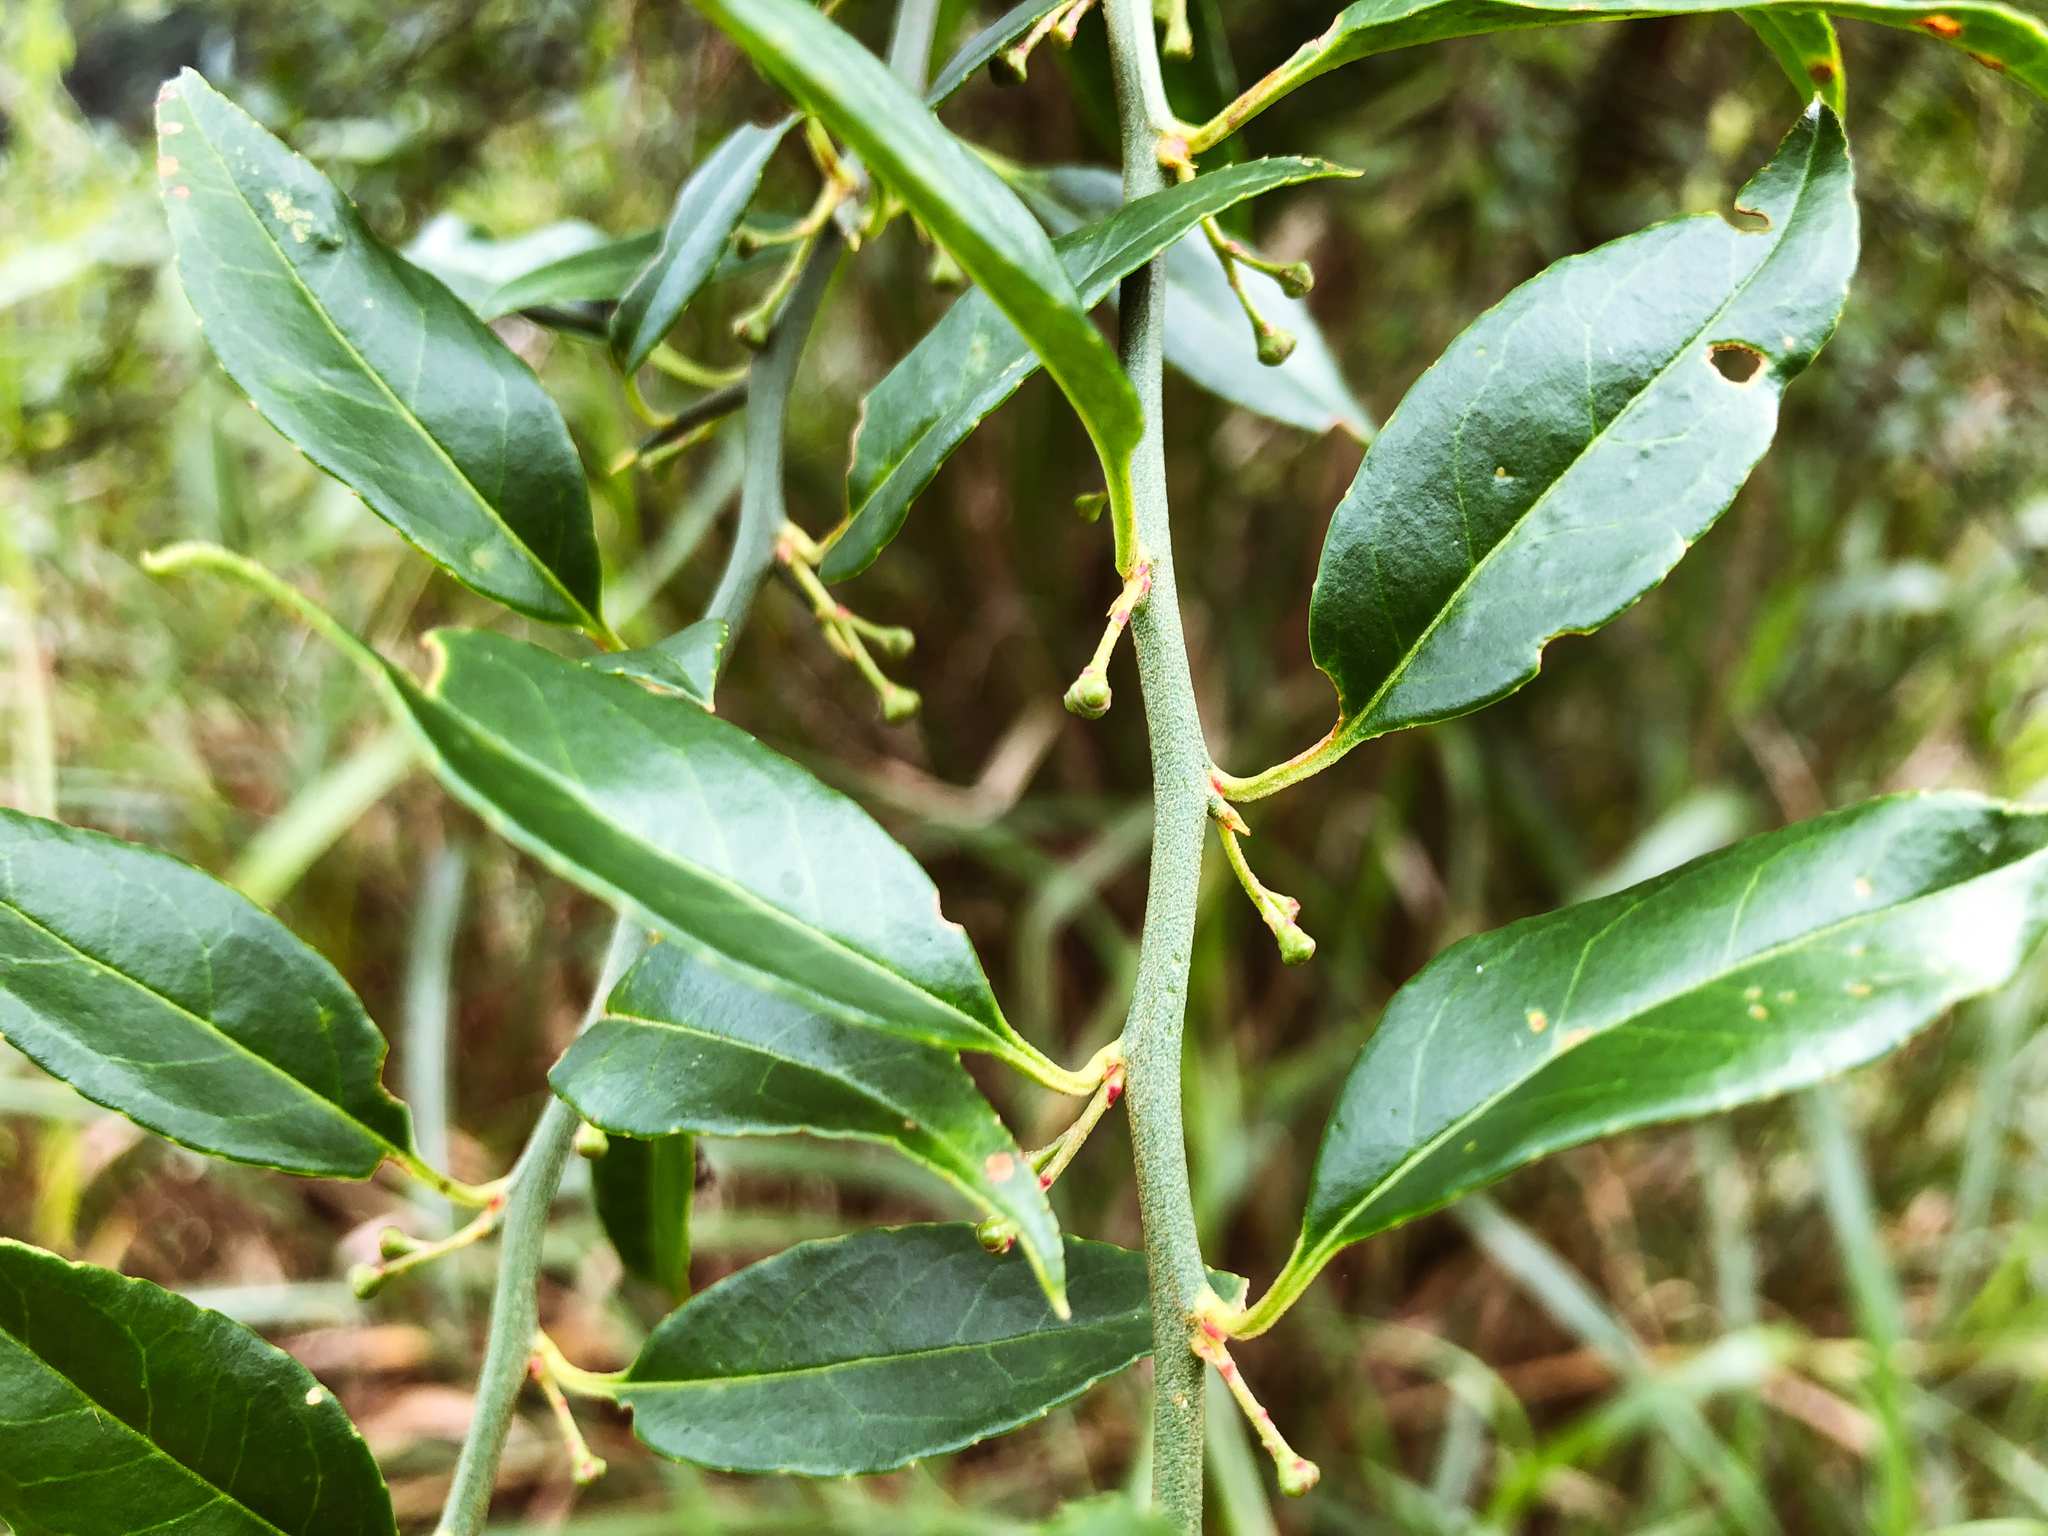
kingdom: Plantae
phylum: Tracheophyta
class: Magnoliopsida
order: Rosales
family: Rosaceae
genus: Prinsepia
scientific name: Prinsepia scandens
